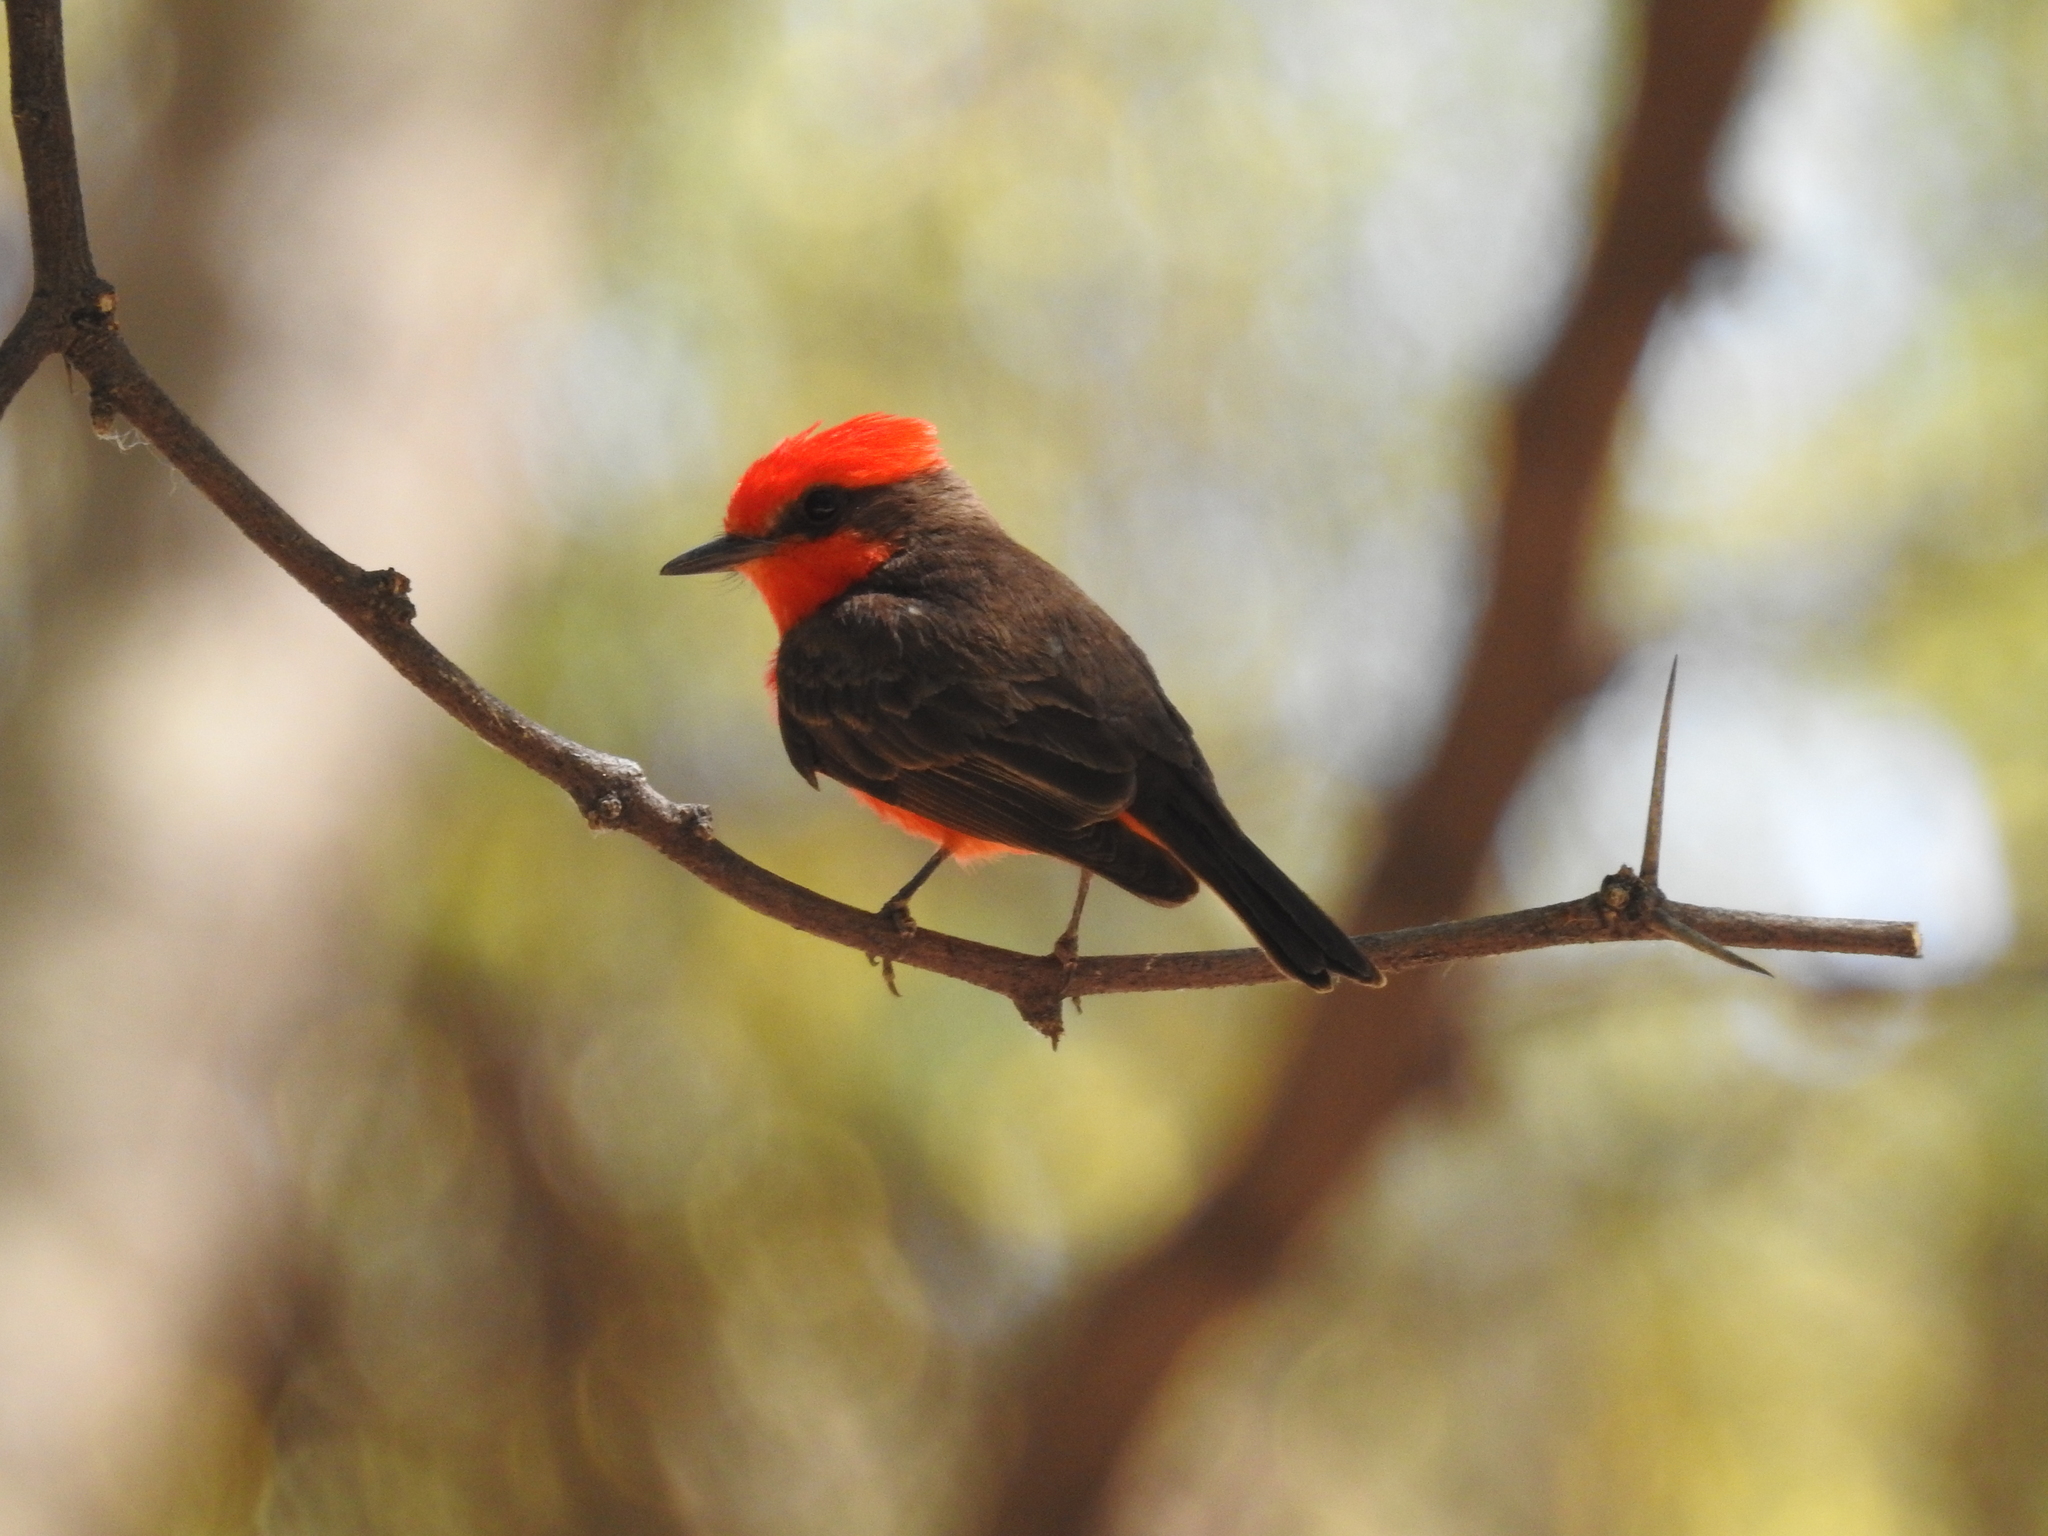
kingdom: Animalia
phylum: Chordata
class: Aves
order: Passeriformes
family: Tyrannidae
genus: Pyrocephalus
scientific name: Pyrocephalus rubinus
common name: Vermilion flycatcher
